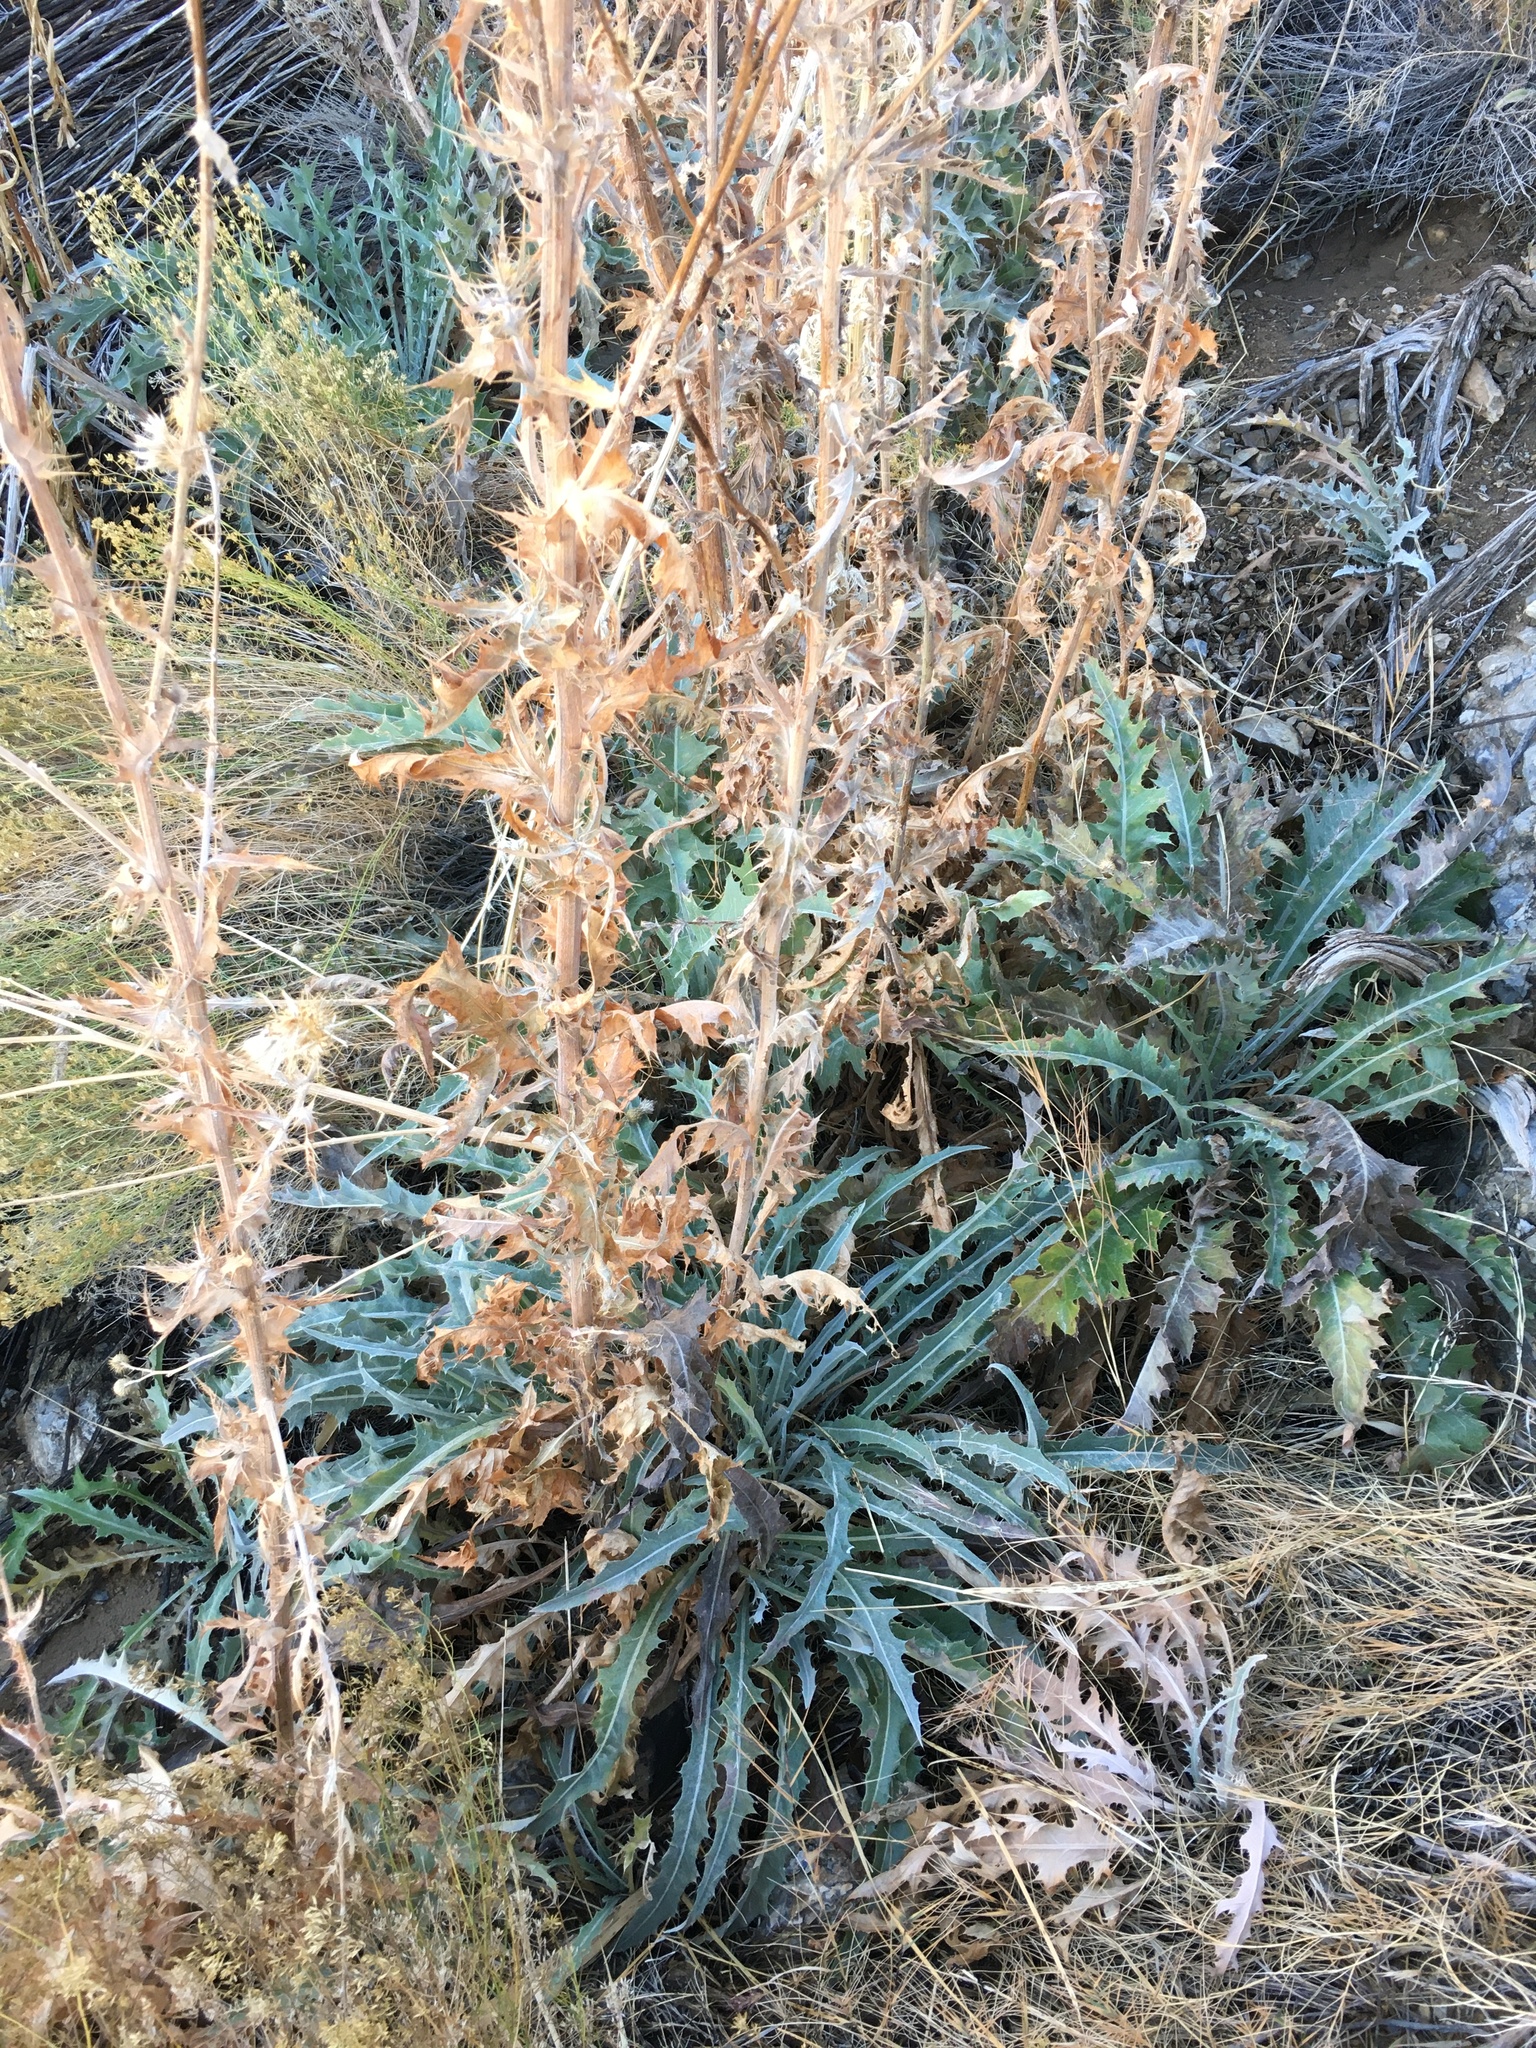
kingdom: Plantae
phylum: Tracheophyta
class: Magnoliopsida
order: Asterales
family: Asteraceae
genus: Cirsium
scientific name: Cirsium mohavense
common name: Mojave thistle
